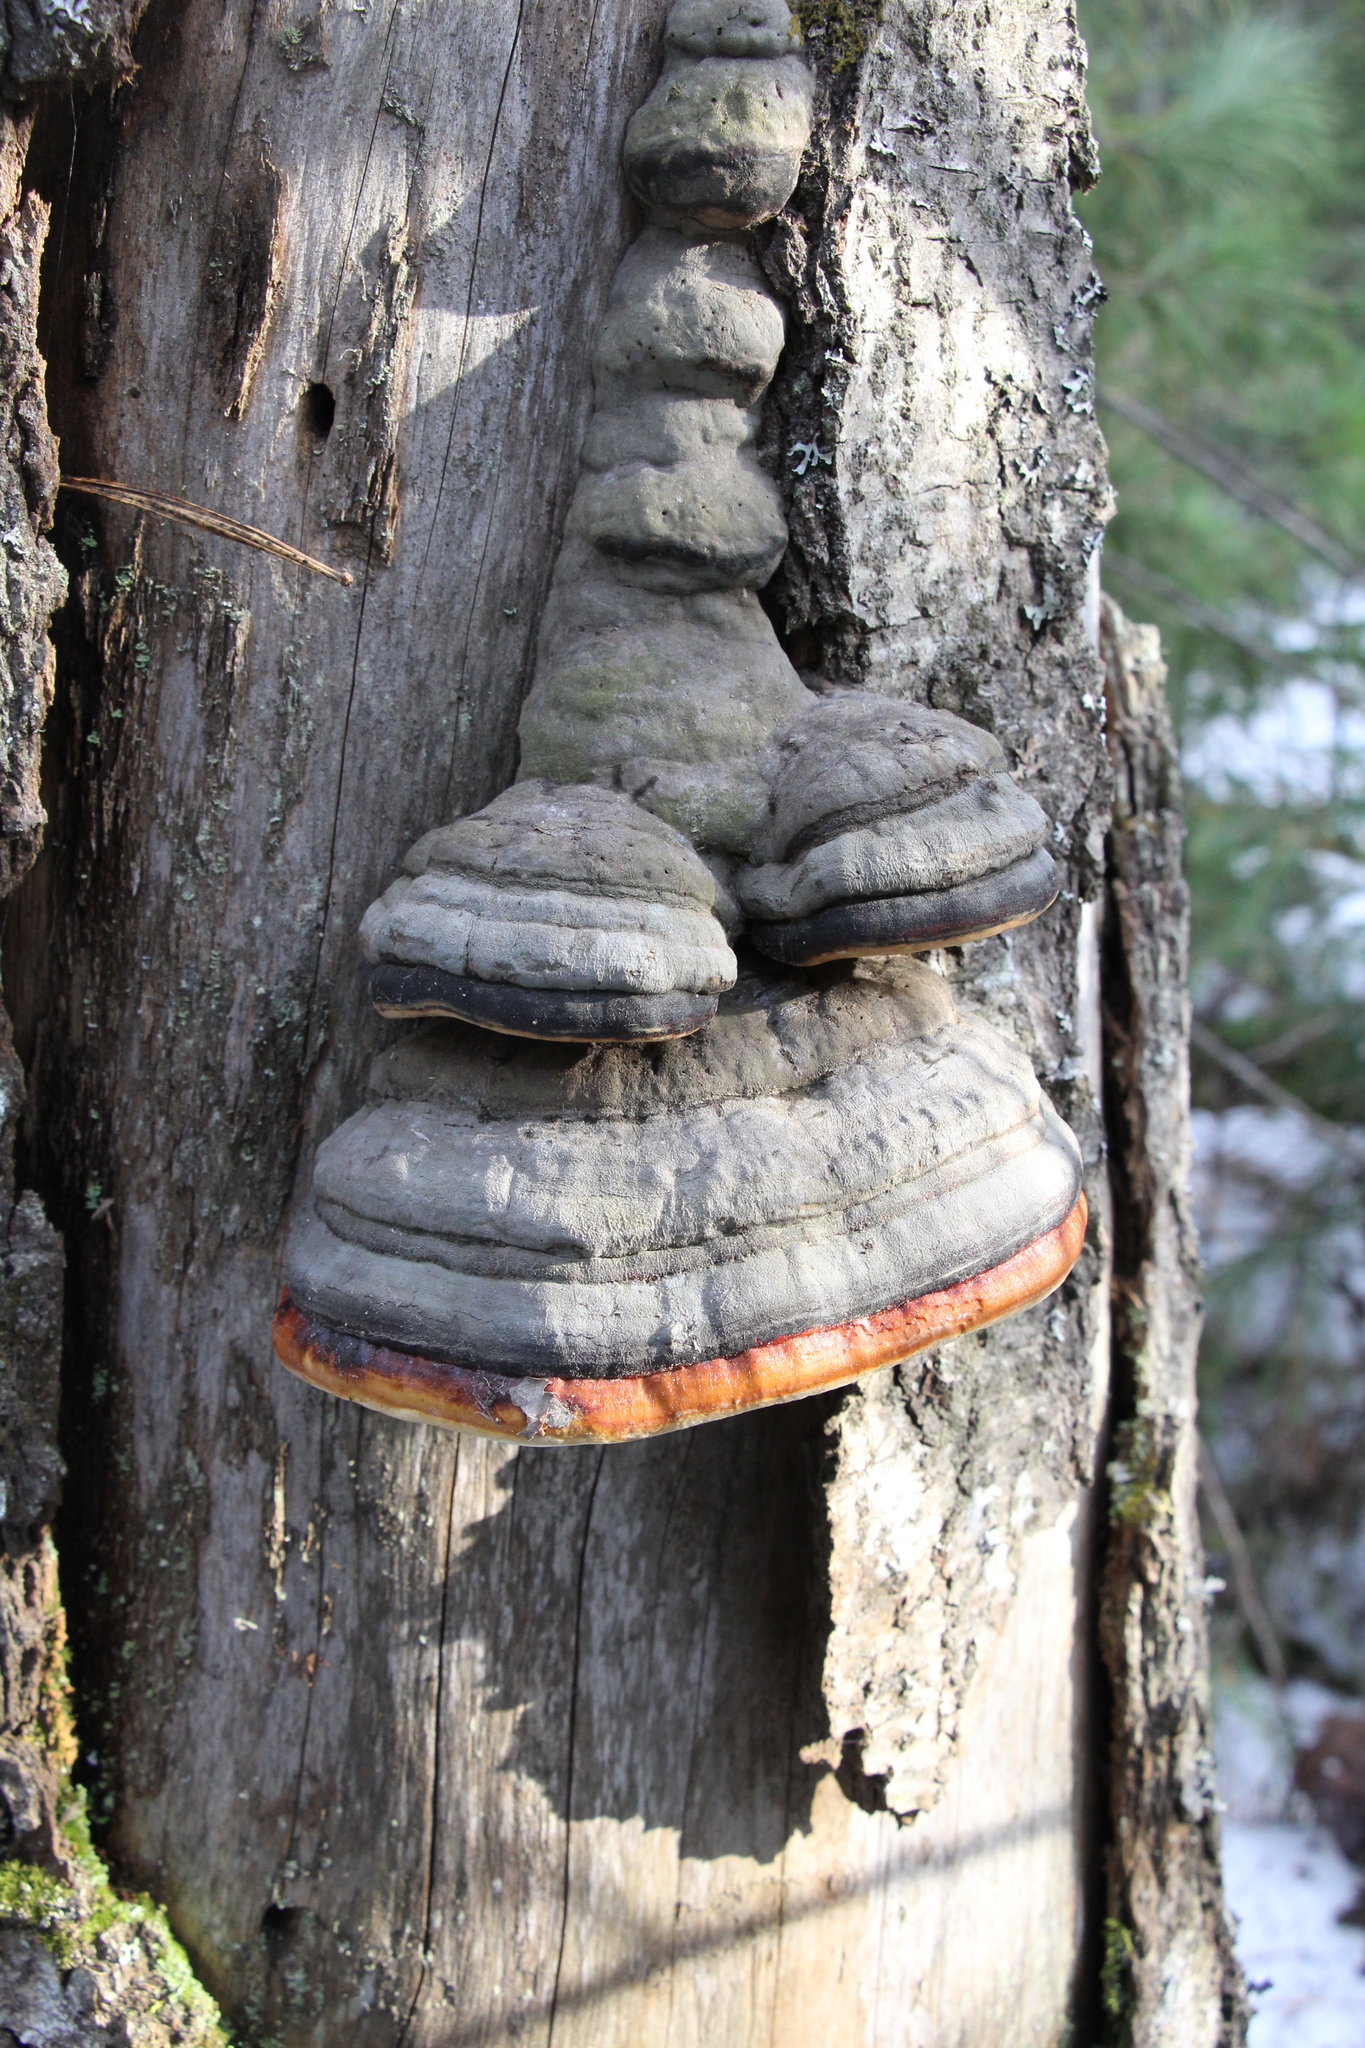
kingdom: Fungi
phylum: Basidiomycota
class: Agaricomycetes
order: Polyporales
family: Fomitopsidaceae
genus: Fomitopsis
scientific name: Fomitopsis pinicola
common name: Red-belted bracket
